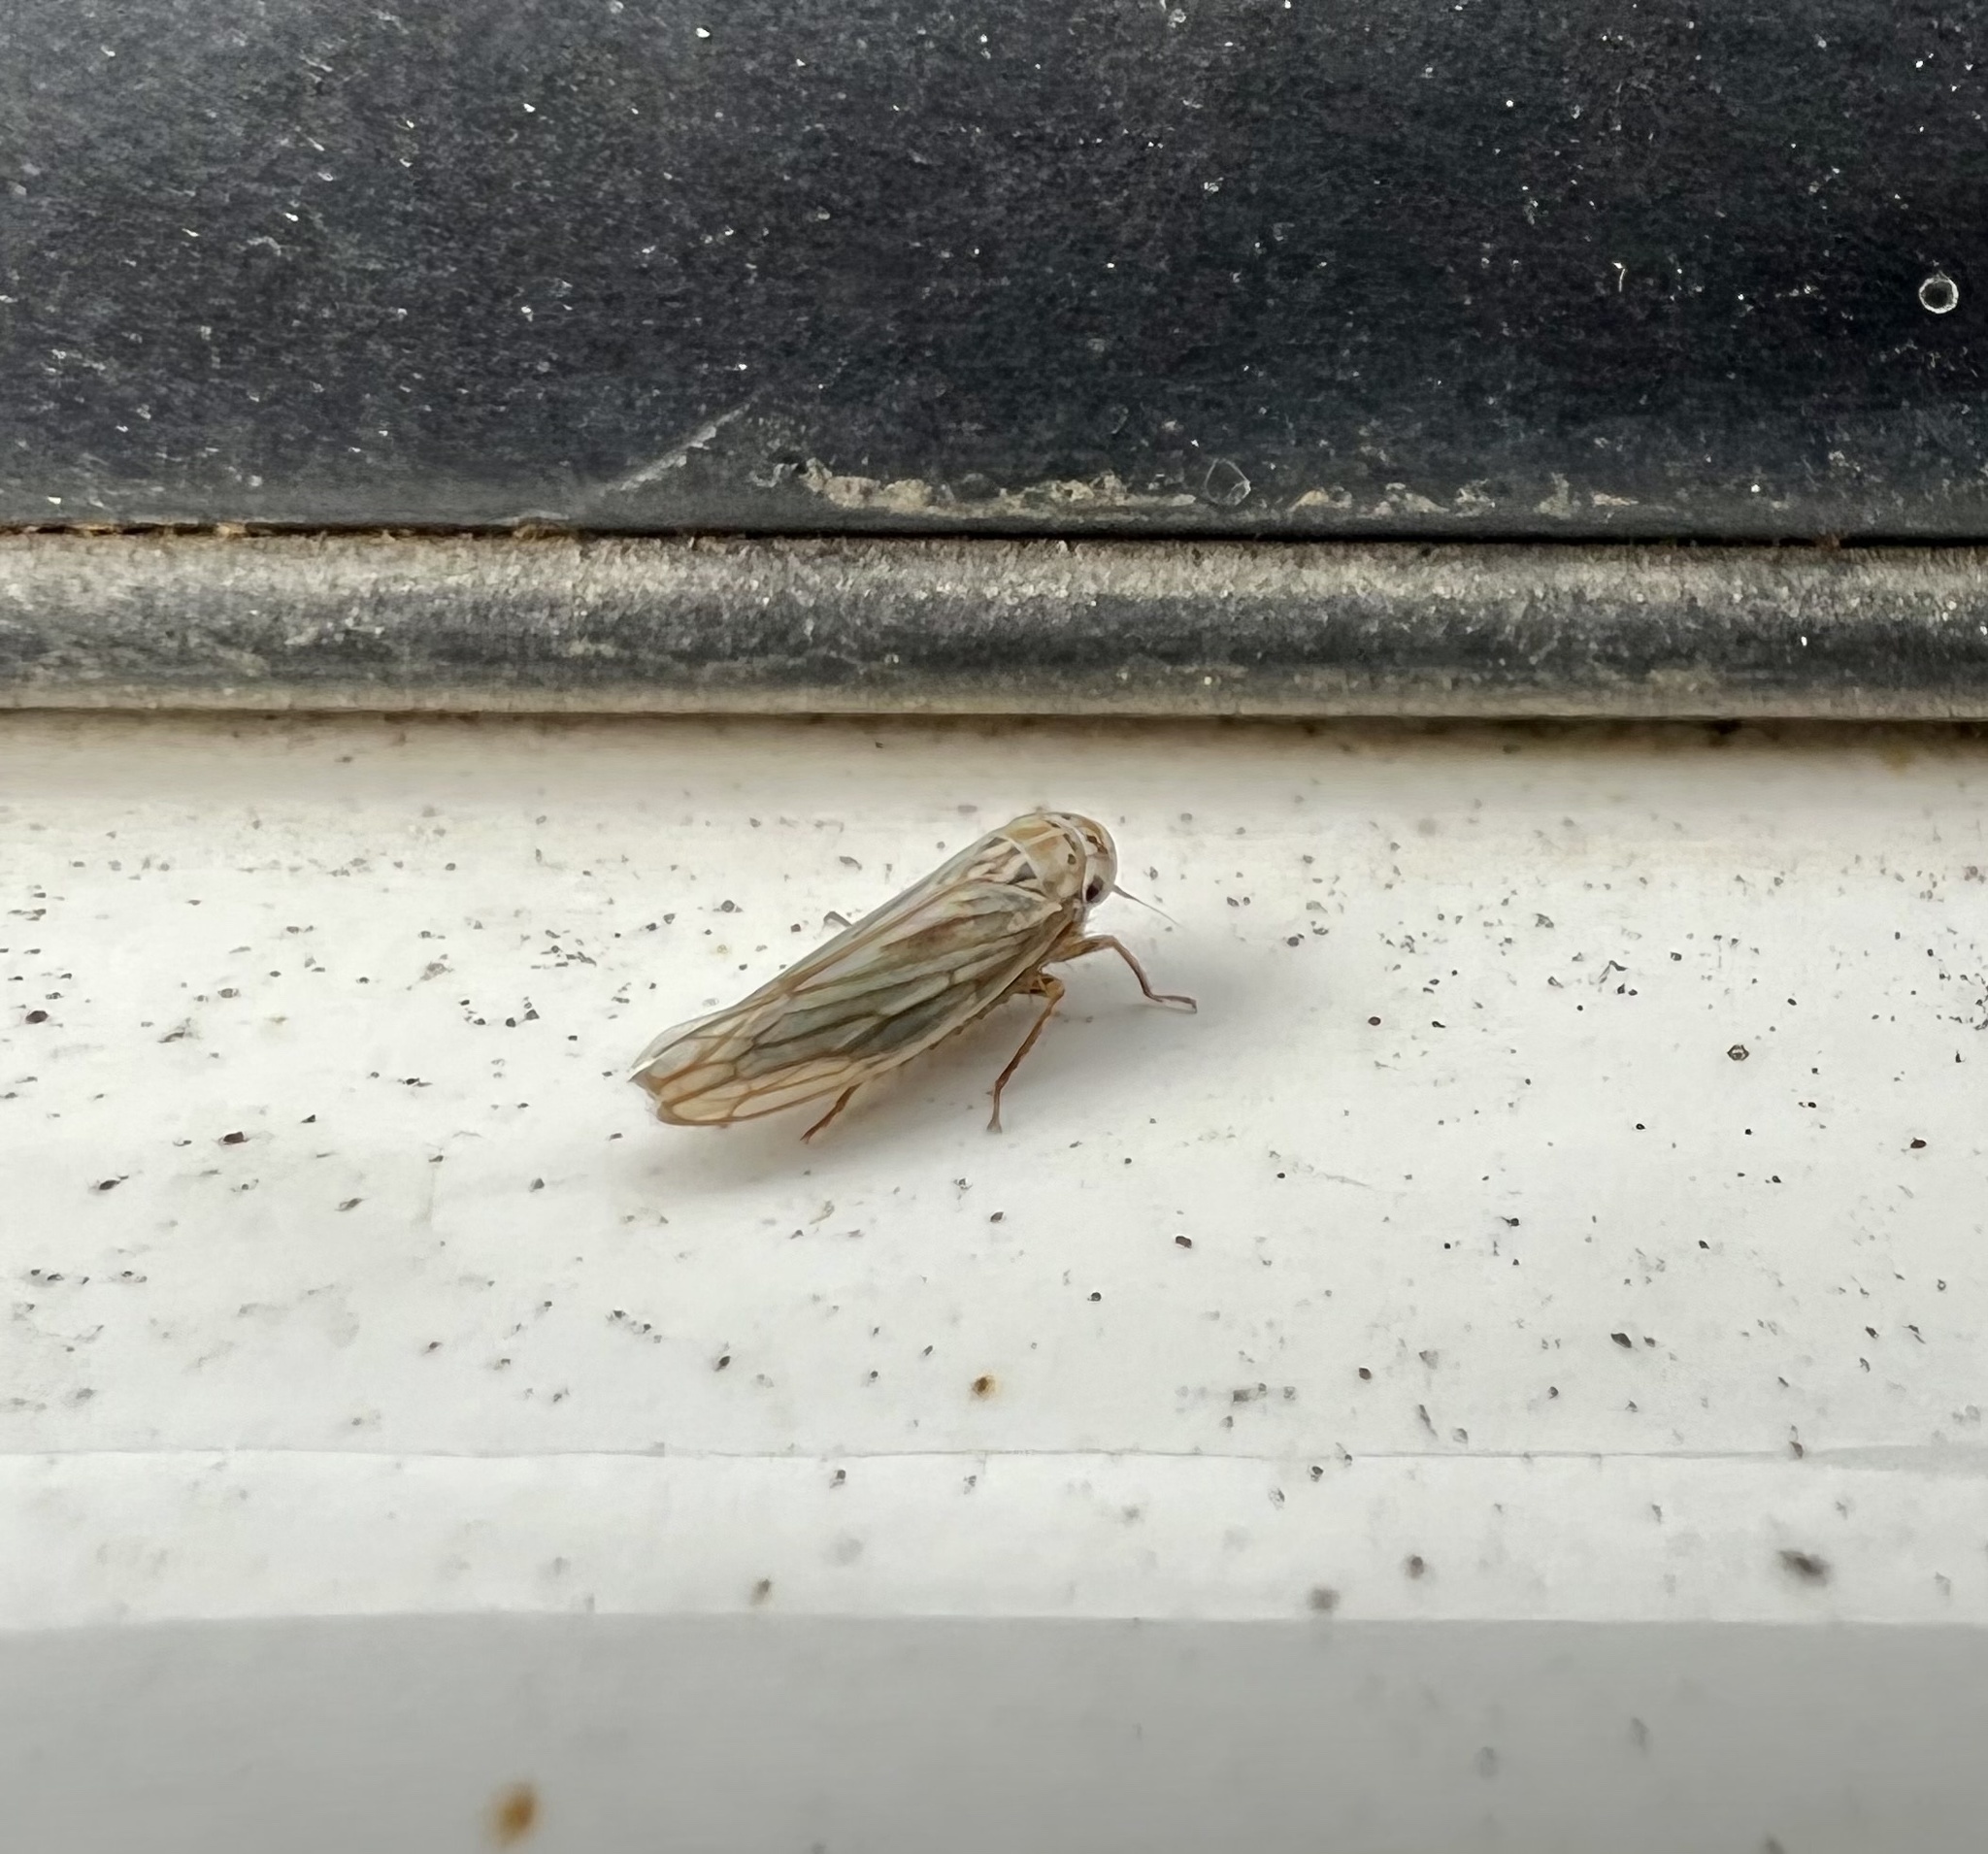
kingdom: Animalia
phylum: Arthropoda
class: Insecta
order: Hemiptera
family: Cicadellidae
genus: Exitianus
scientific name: Exitianus exitiosus
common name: Gray lawn leafhopper
